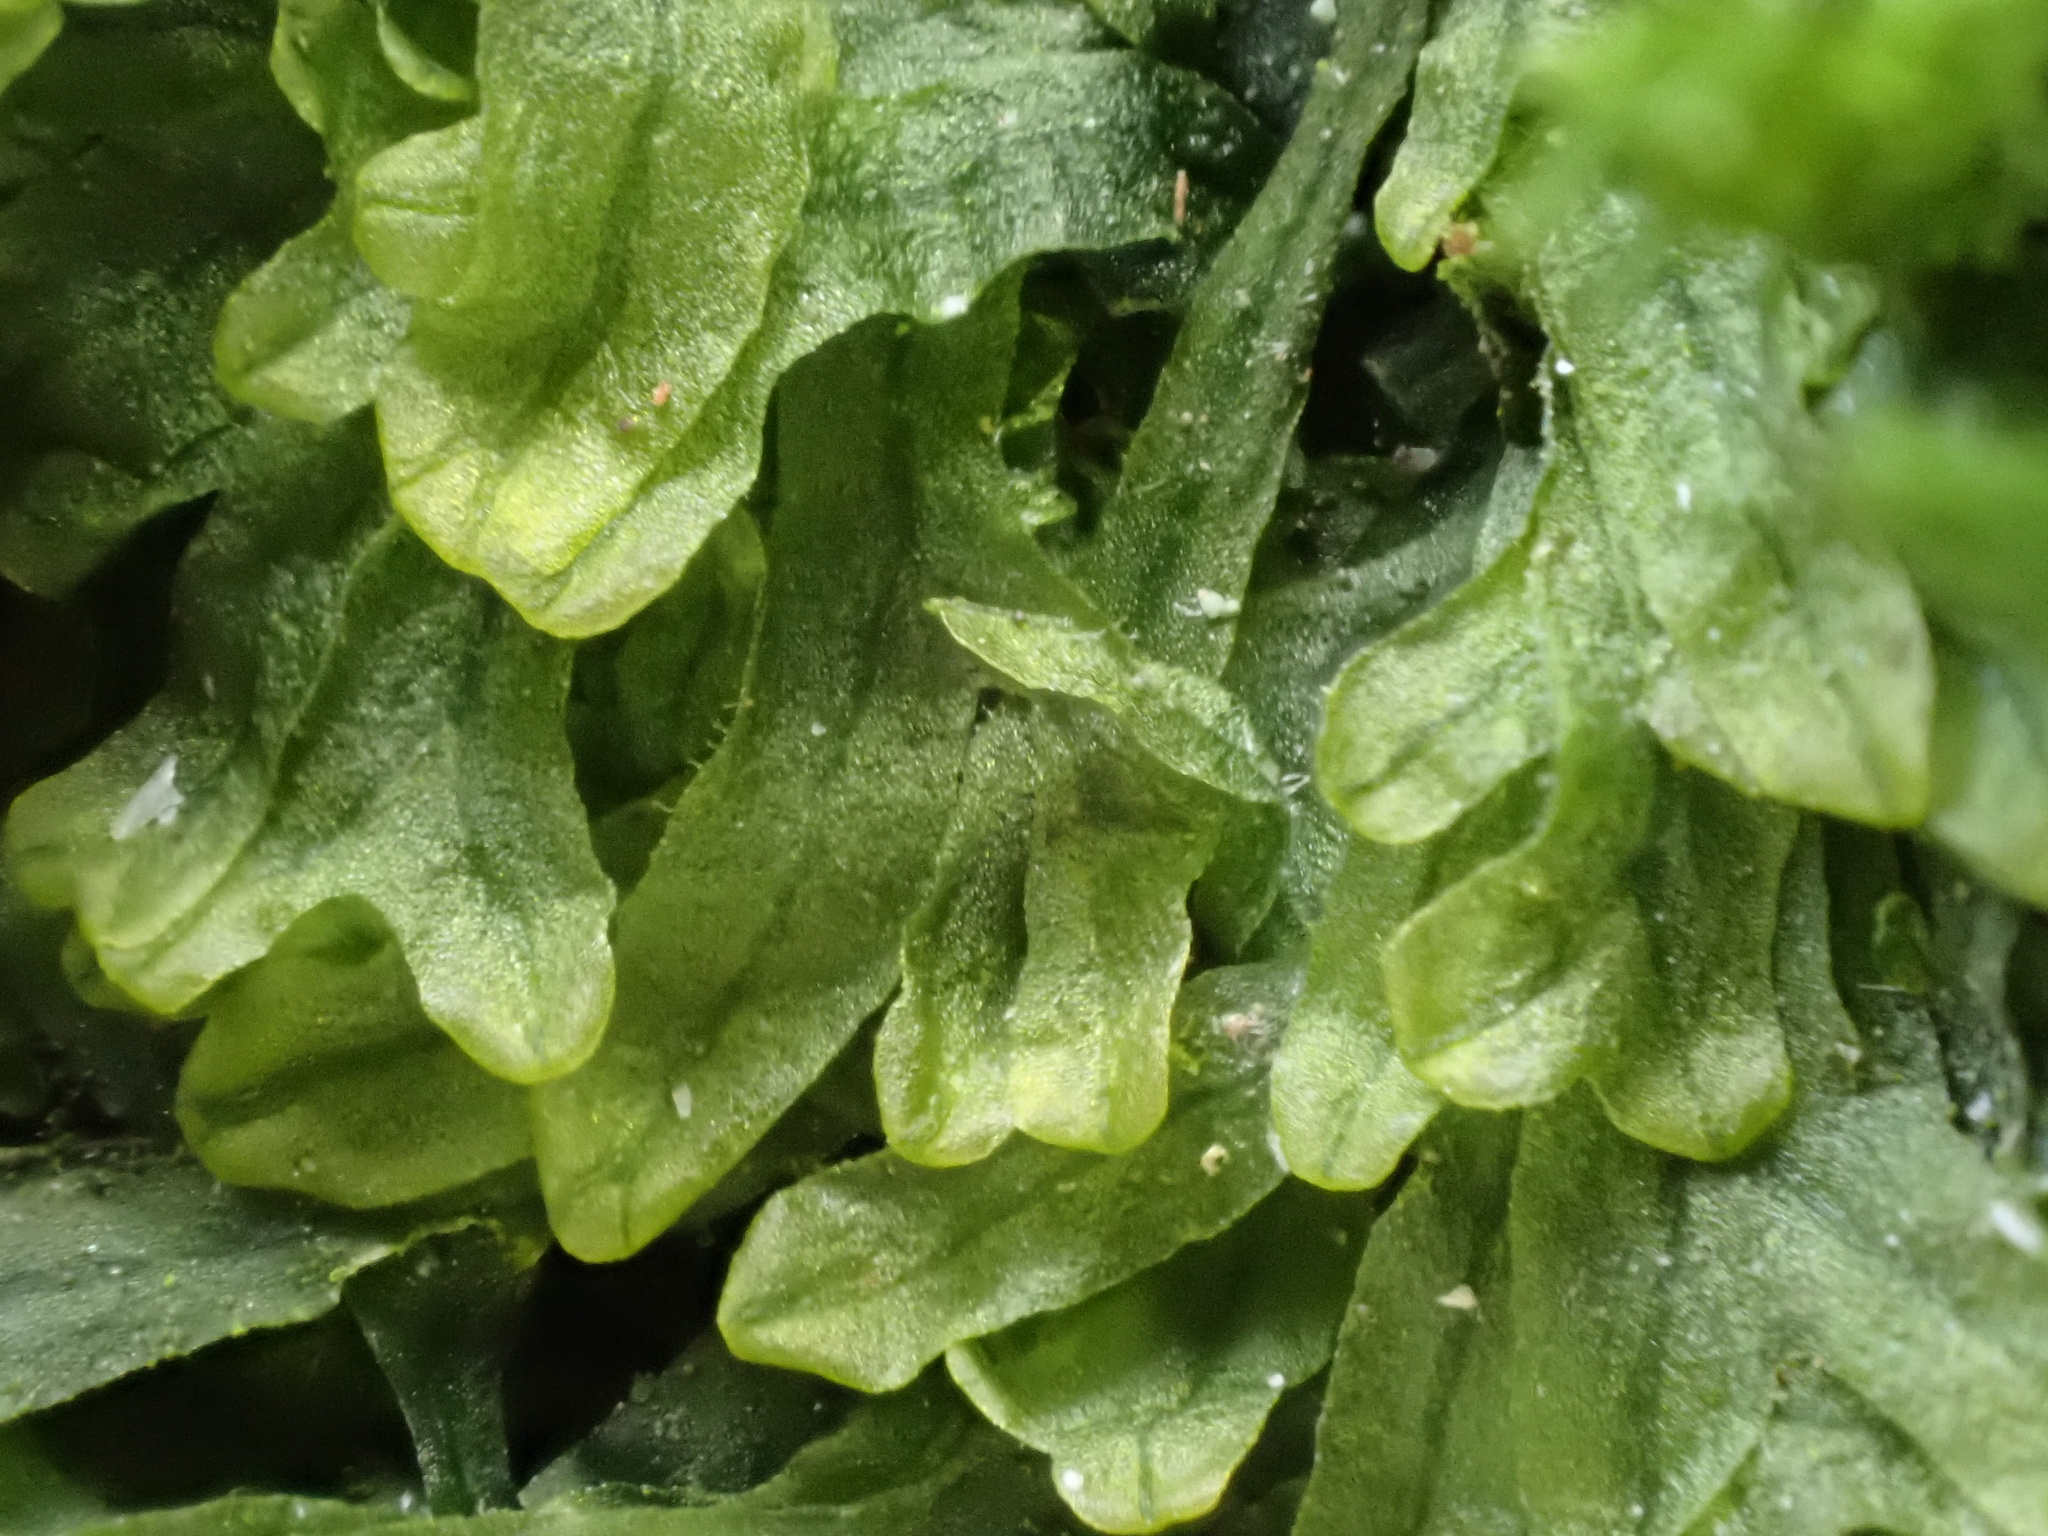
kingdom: Plantae
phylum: Marchantiophyta
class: Jungermanniopsida
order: Metzgeriales
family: Metzgeriaceae
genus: Metzgeria
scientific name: Metzgeria furcata
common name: Forked veilwort
